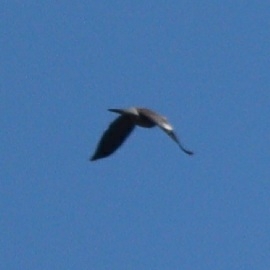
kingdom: Animalia
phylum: Chordata
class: Aves
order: Columbiformes
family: Columbidae
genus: Columba
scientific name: Columba palumbus
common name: Common wood pigeon
